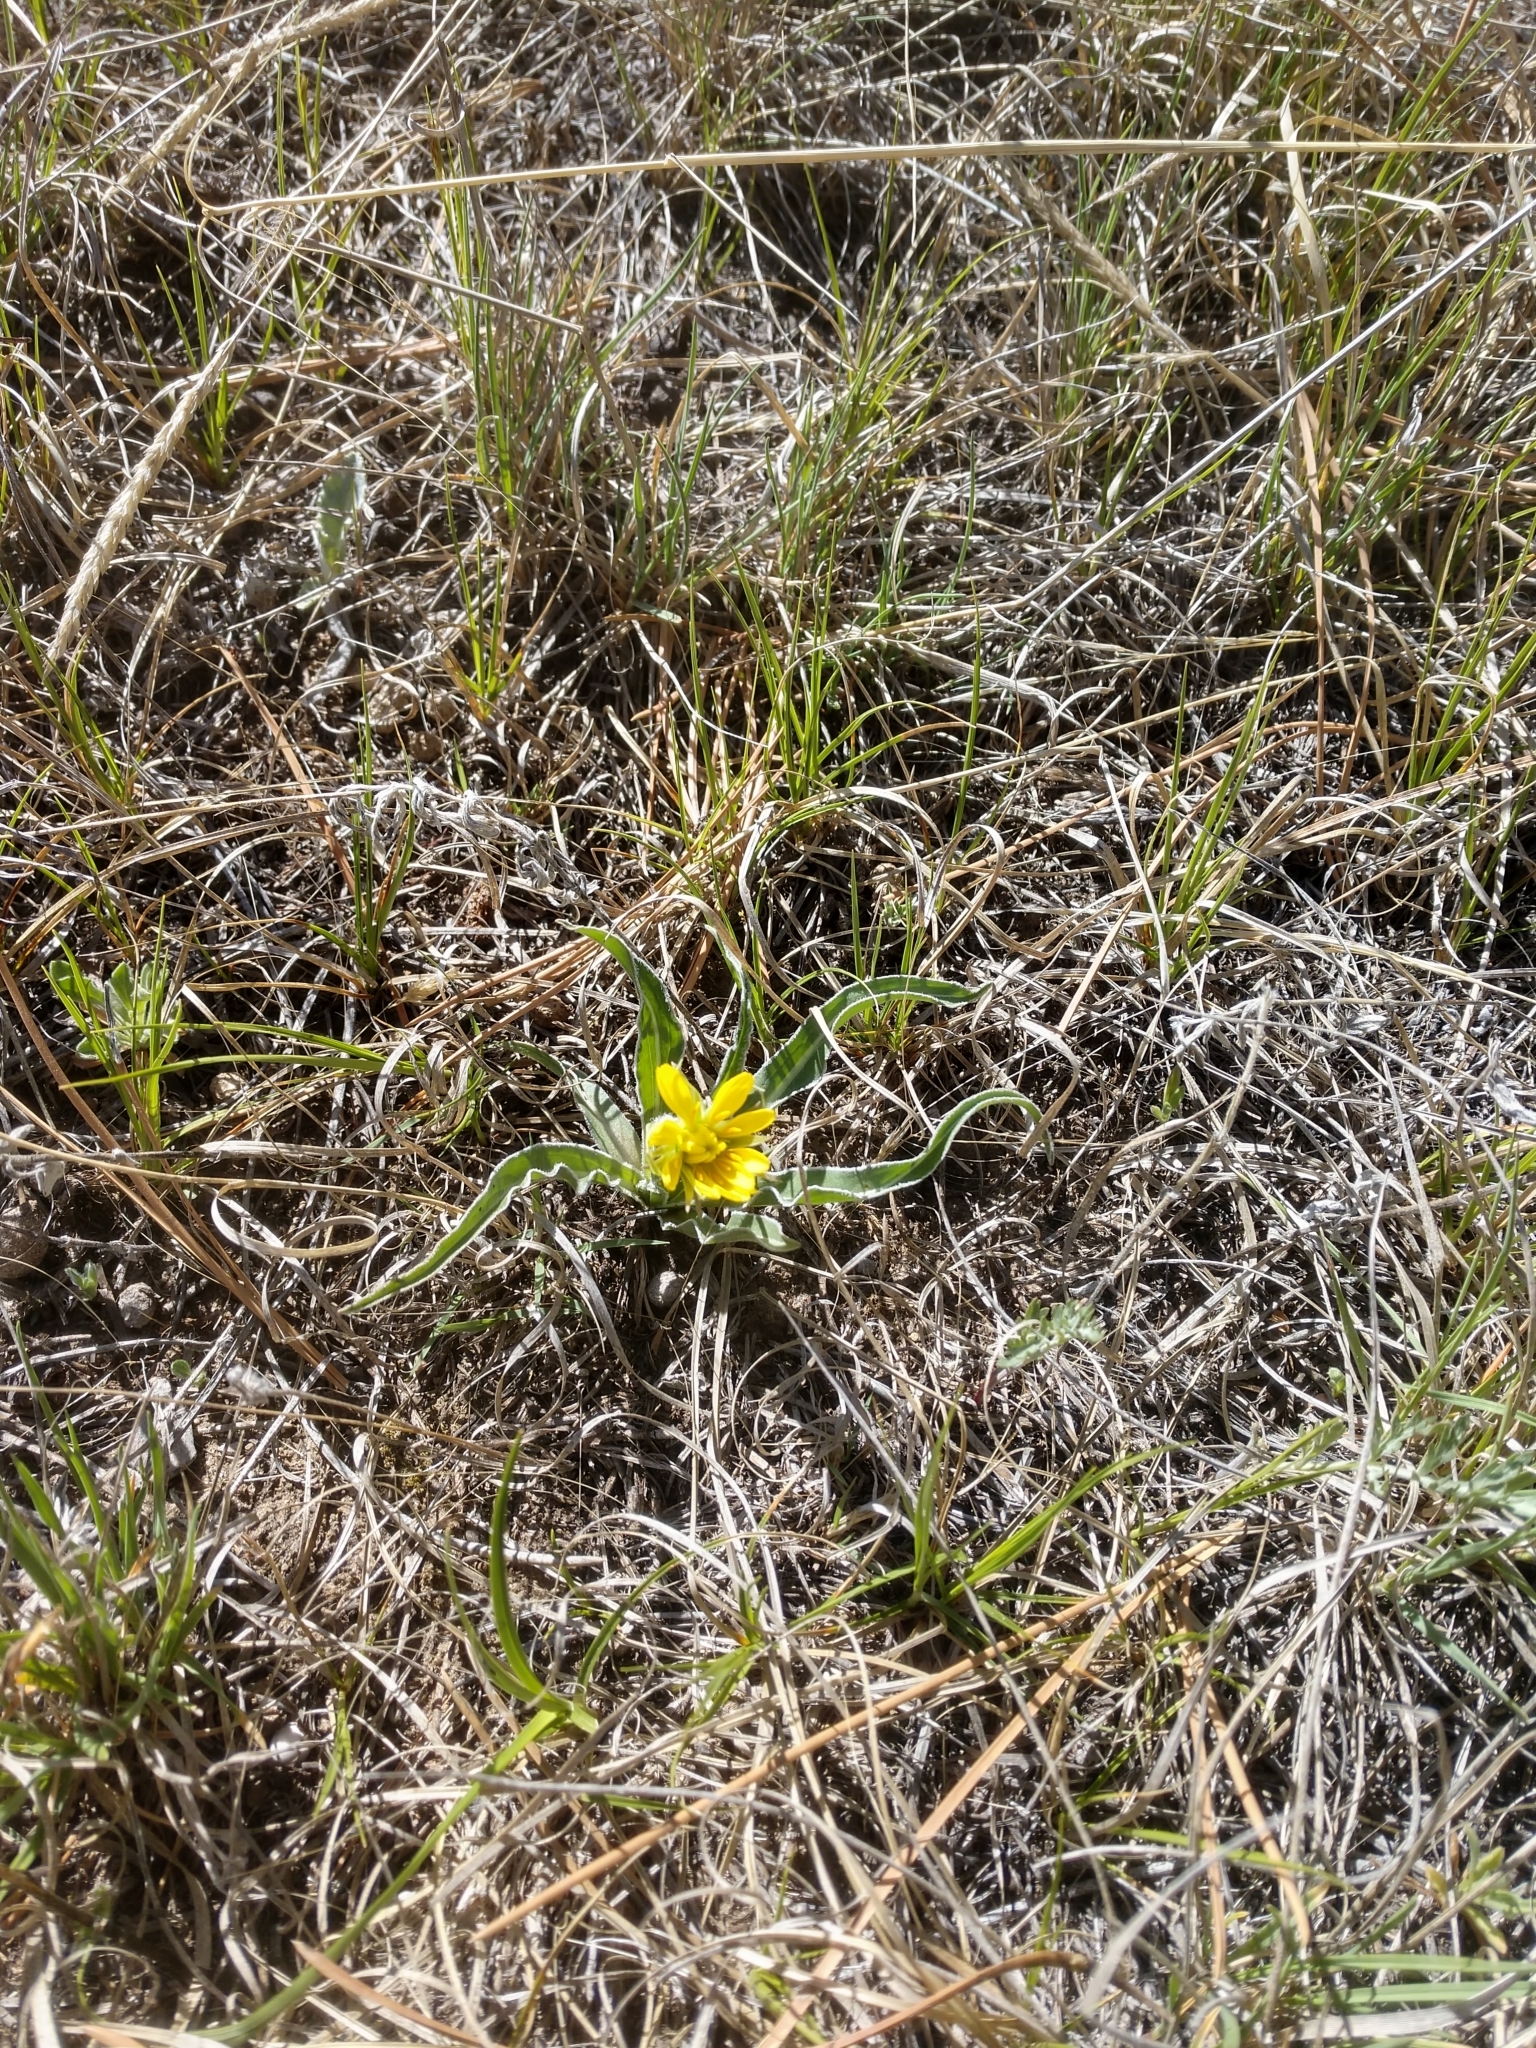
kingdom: Plantae
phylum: Tracheophyta
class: Magnoliopsida
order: Asterales
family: Asteraceae
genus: Microseris
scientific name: Microseris cuspidata
